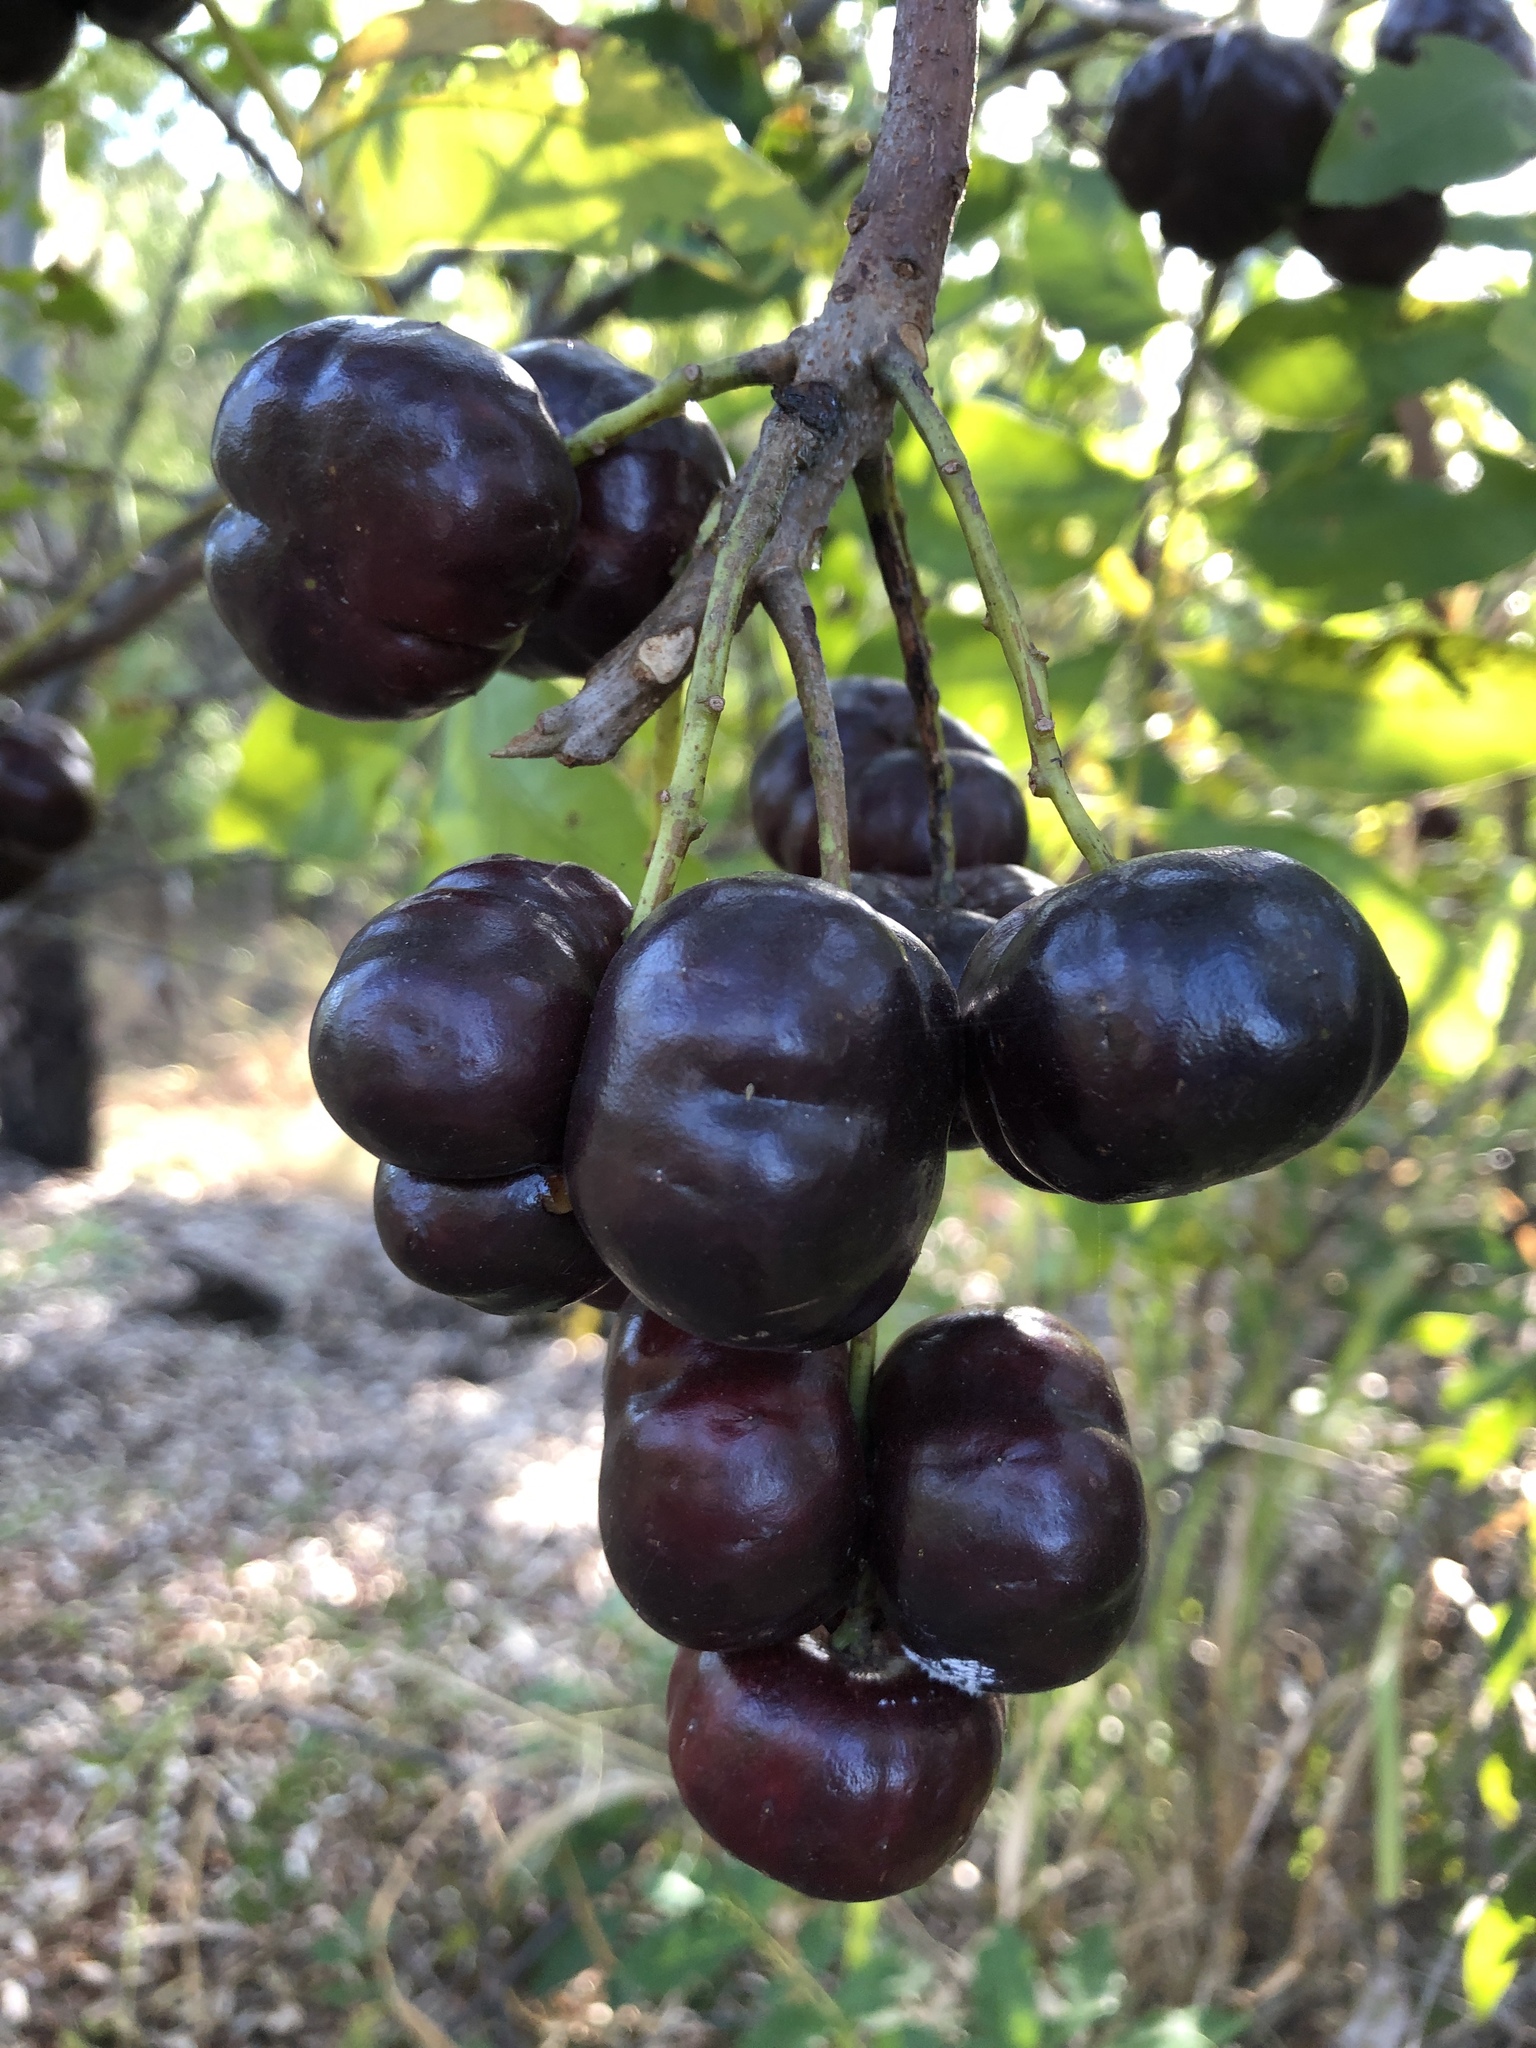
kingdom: Plantae
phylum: Tracheophyta
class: Magnoliopsida
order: Sapindales
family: Anacardiaceae
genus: Pleiogynium
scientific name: Pleiogynium timoriense
